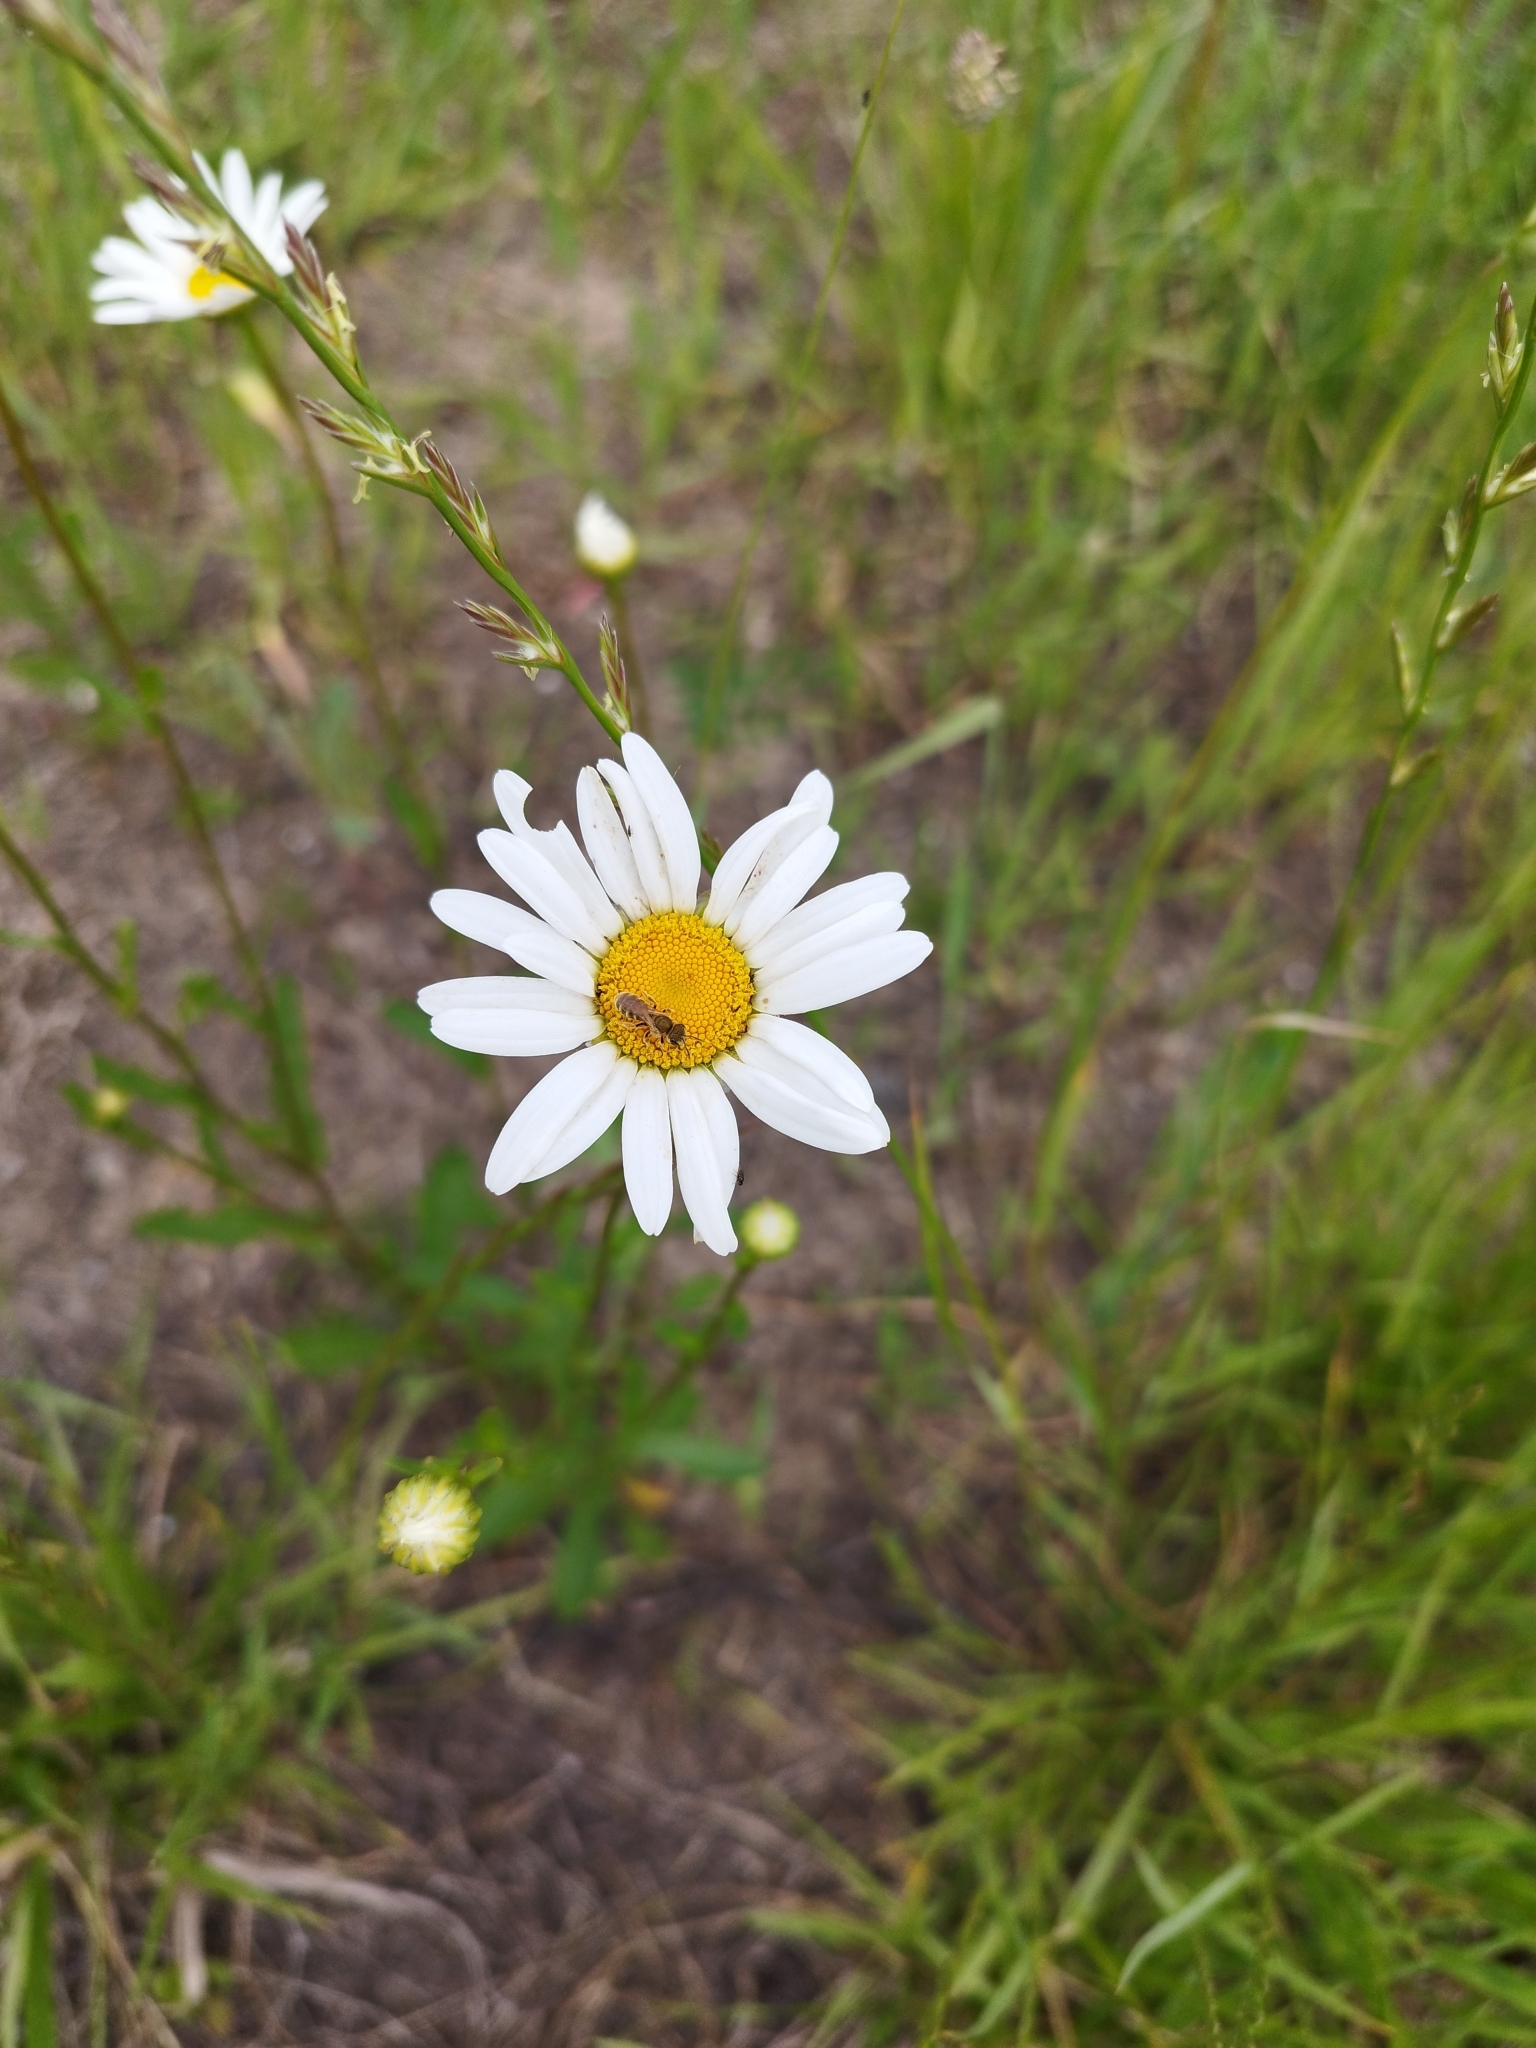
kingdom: Plantae
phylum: Tracheophyta
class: Magnoliopsida
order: Asterales
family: Asteraceae
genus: Leucanthemum
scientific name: Leucanthemum vulgare
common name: Oxeye daisy
